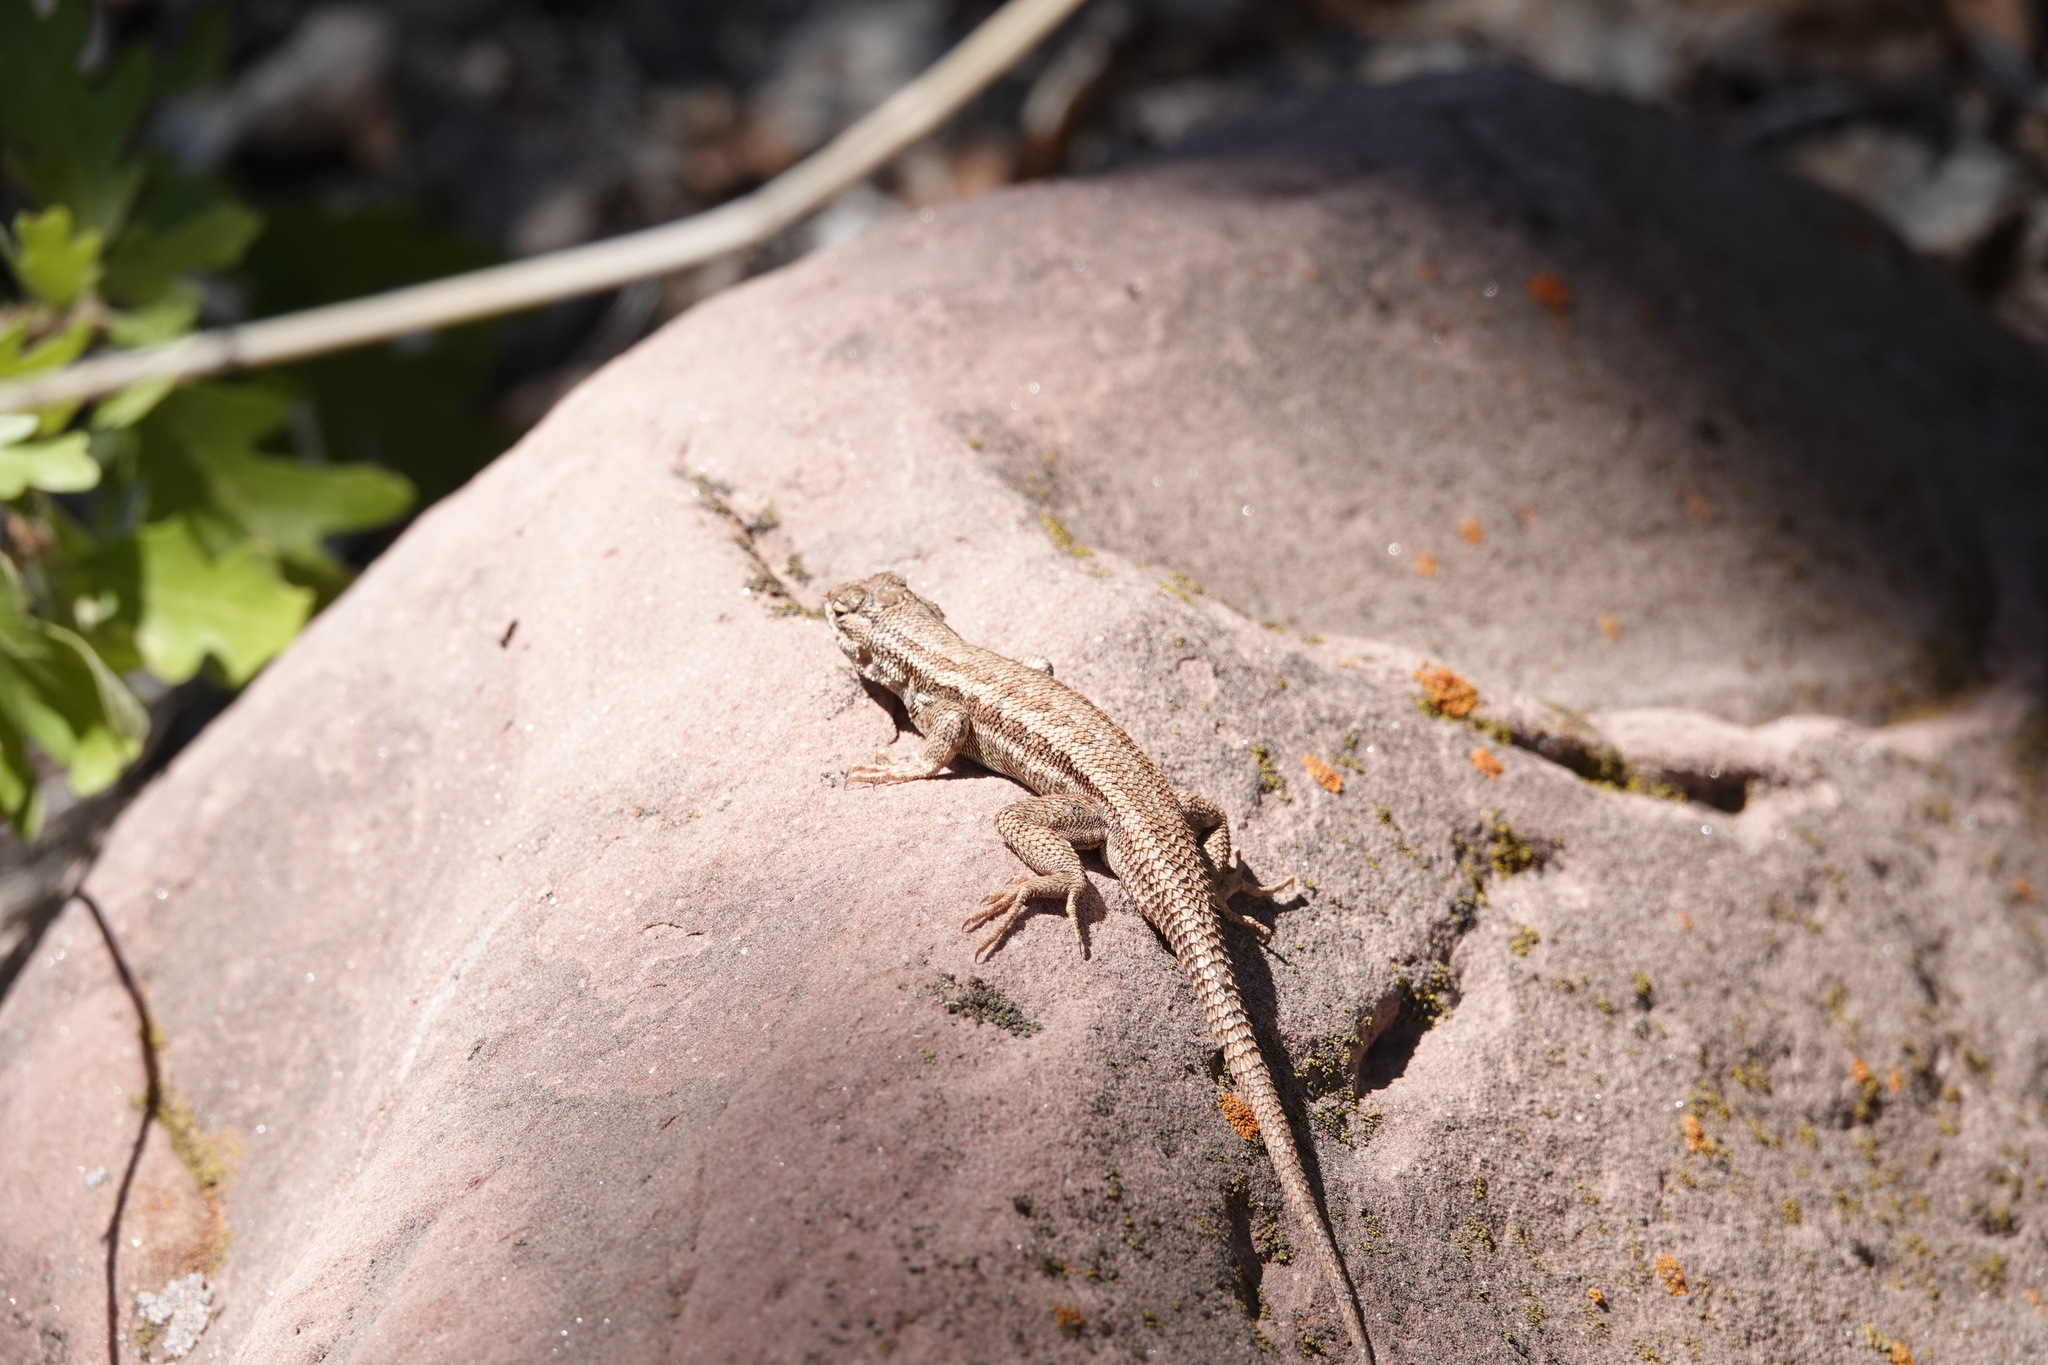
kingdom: Animalia
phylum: Chordata
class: Squamata
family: Phrynosomatidae
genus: Sceloporus
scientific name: Sceloporus graciosus
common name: Sagebrush lizard
